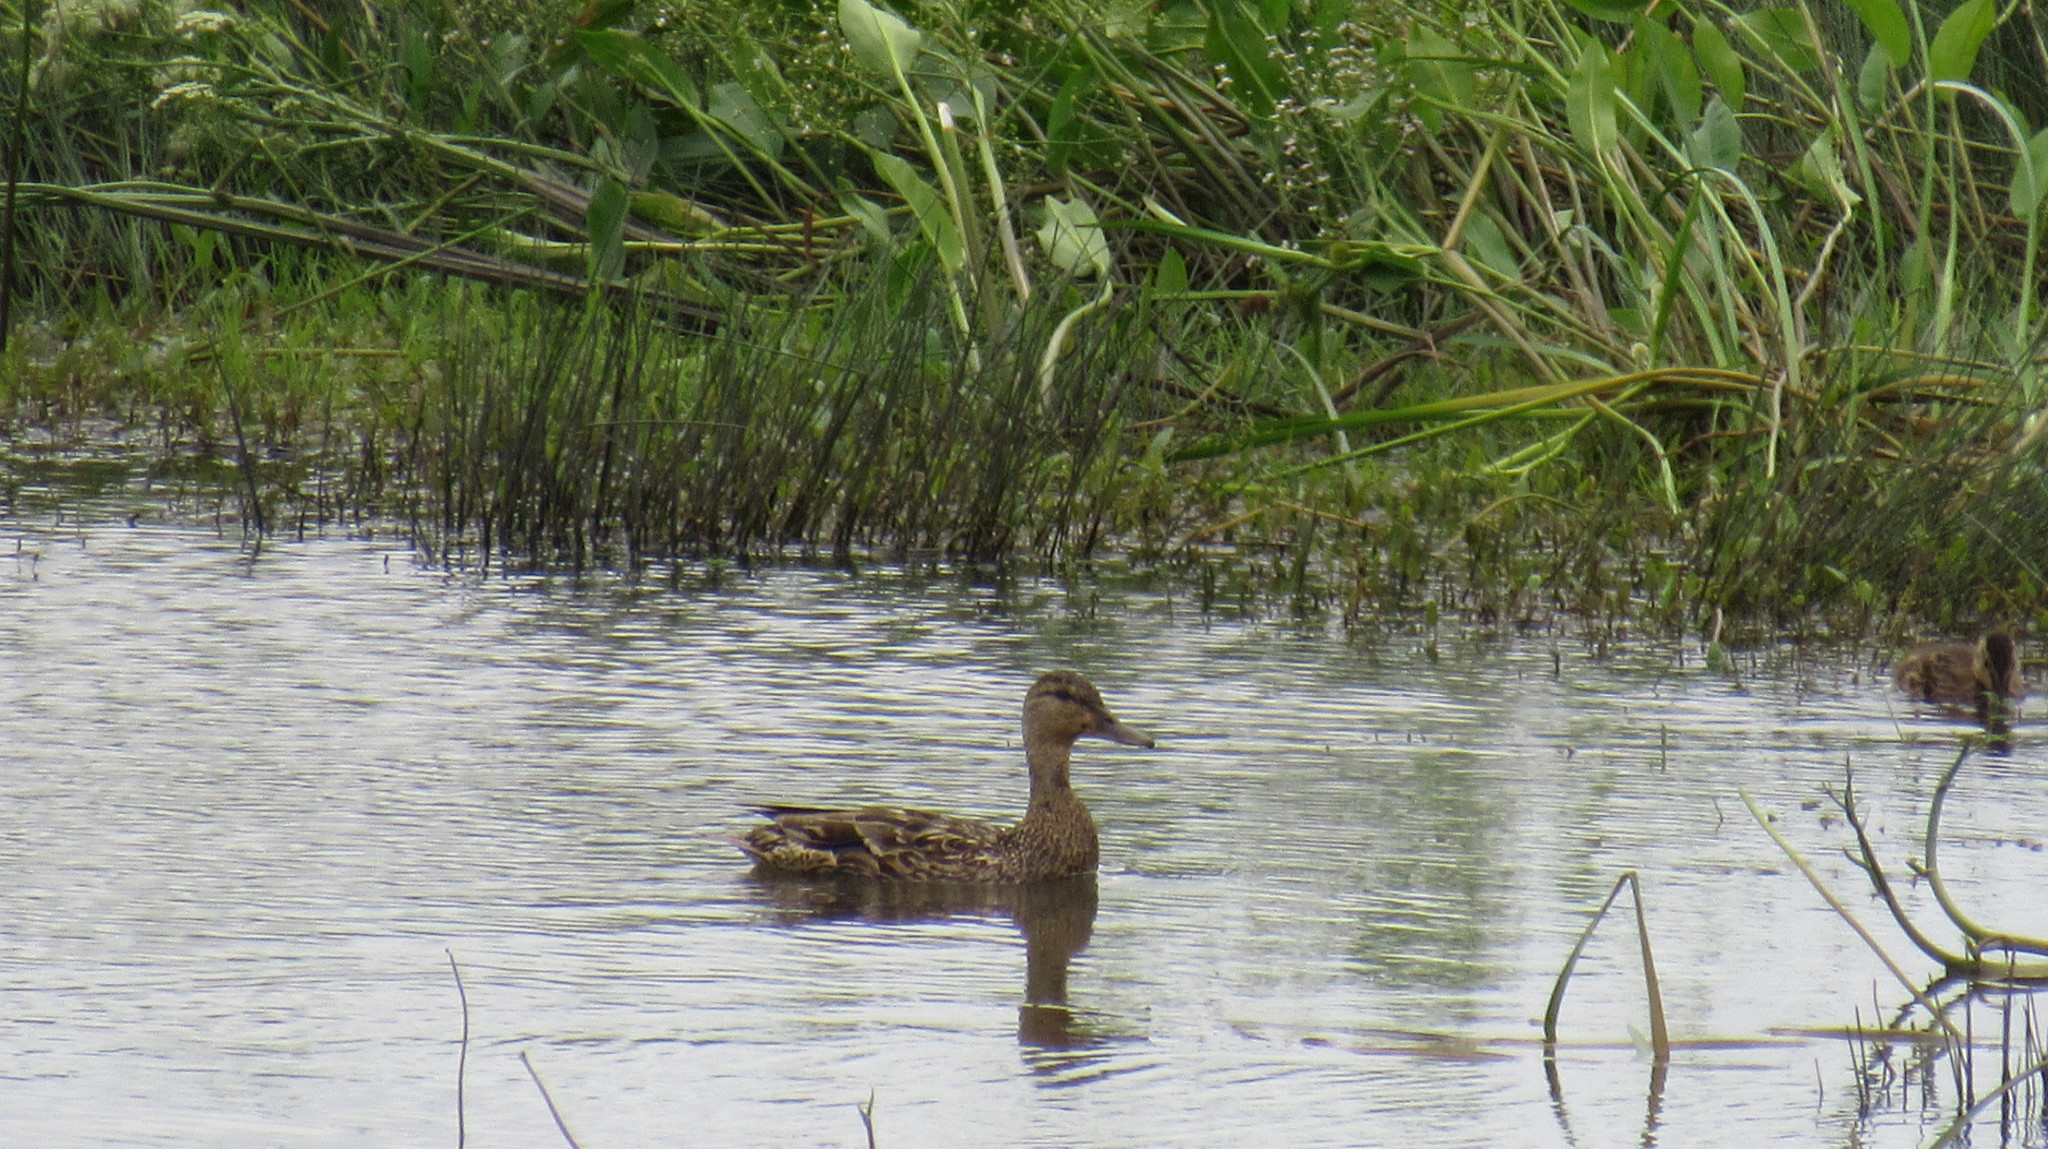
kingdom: Animalia
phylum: Chordata
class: Aves
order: Anseriformes
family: Anatidae
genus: Anas
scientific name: Anas platyrhynchos
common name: Mallard
